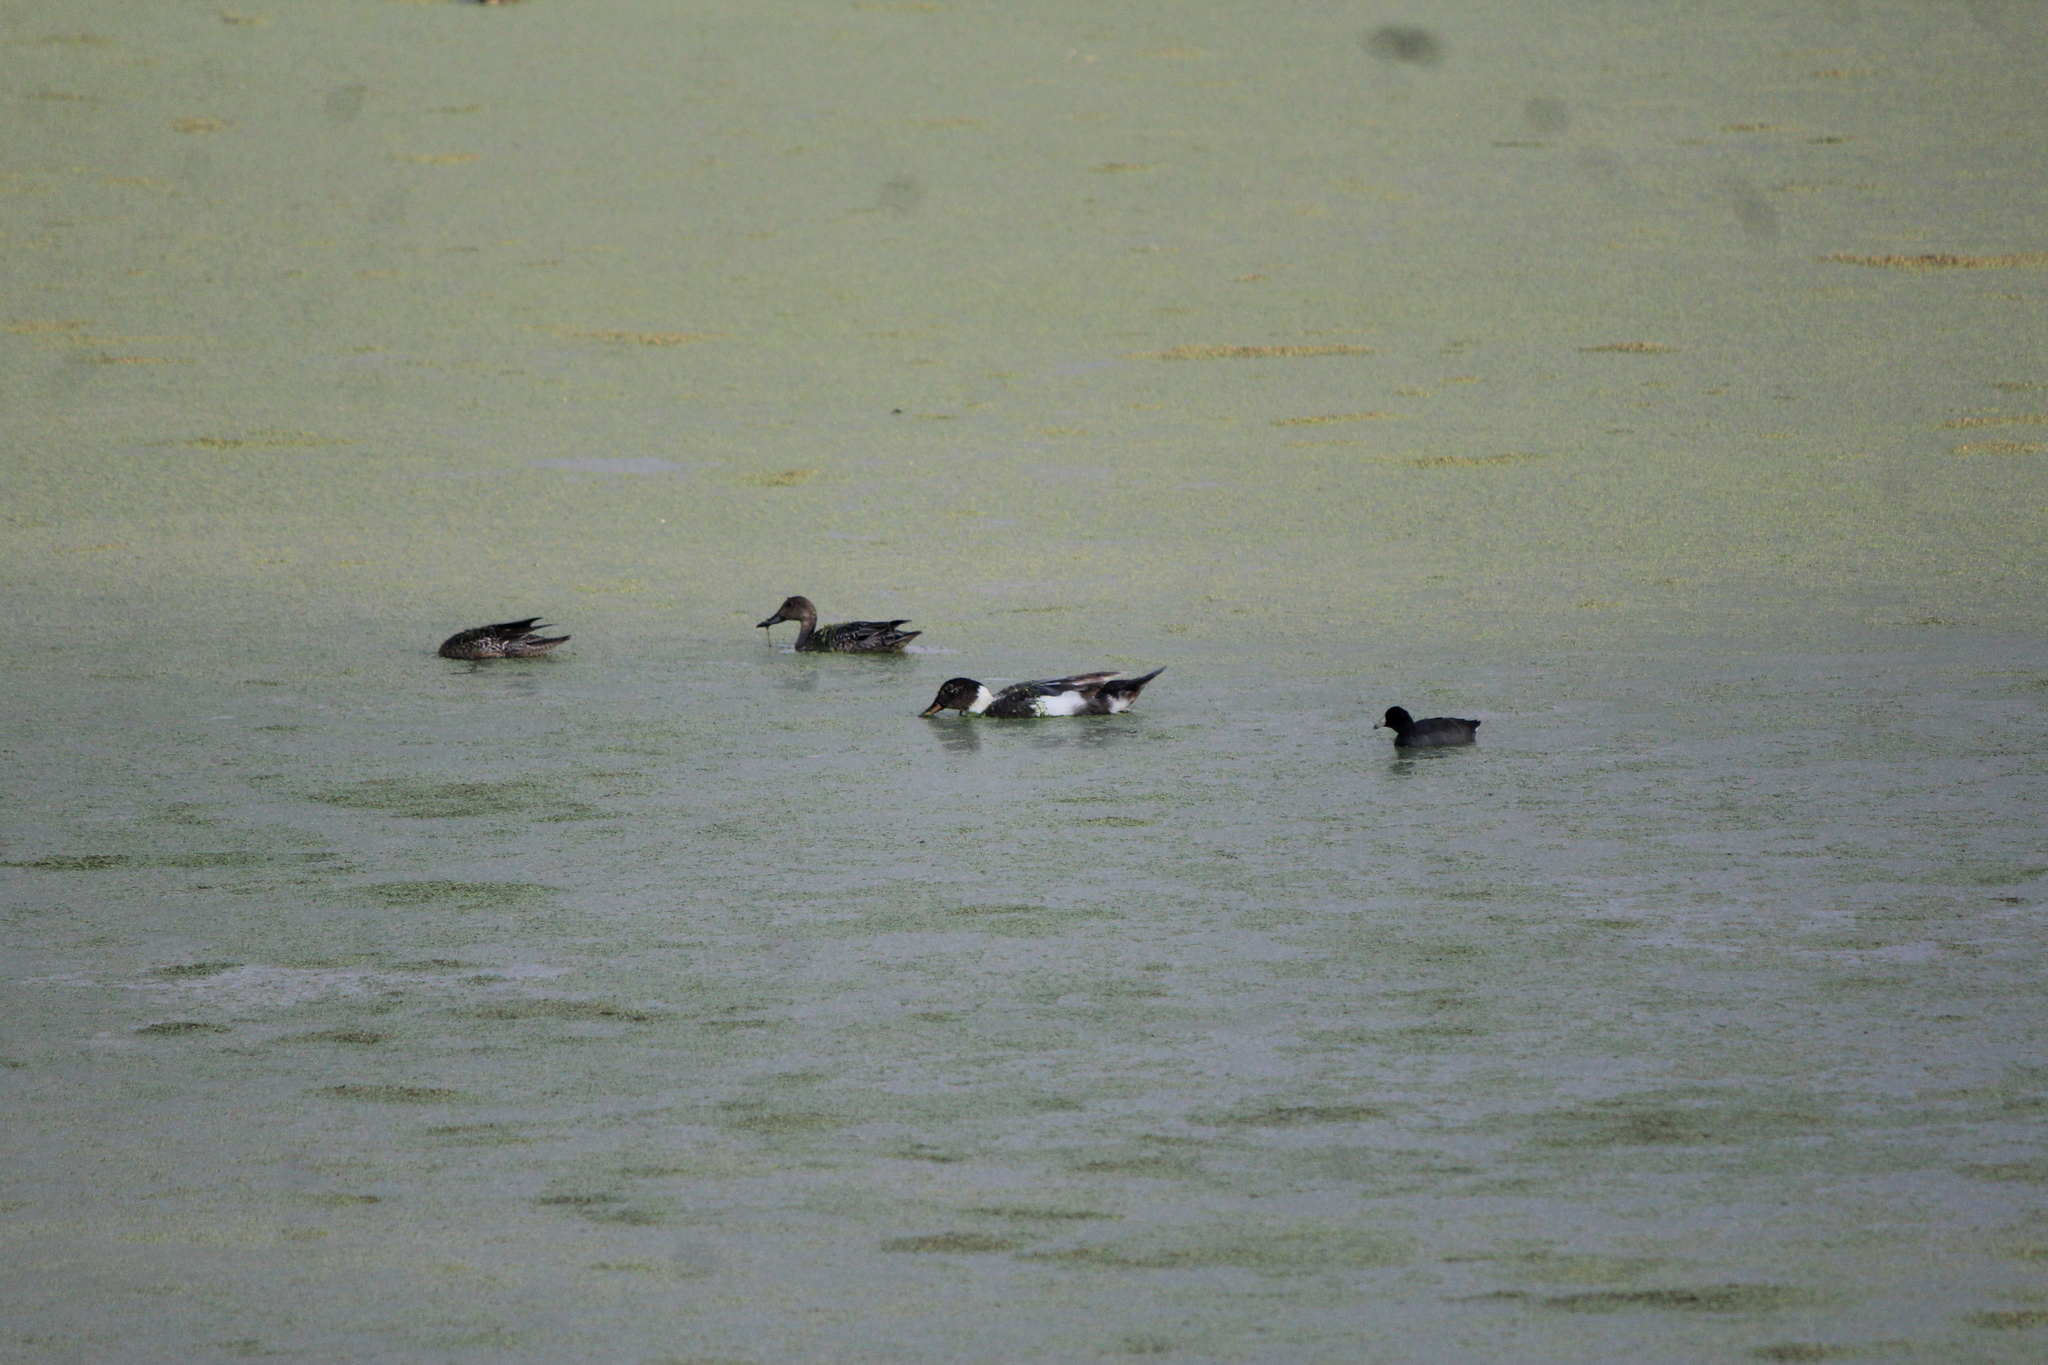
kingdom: Animalia
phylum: Chordata
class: Aves
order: Anseriformes
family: Anatidae
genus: Anas
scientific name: Anas acuta
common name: Northern pintail
